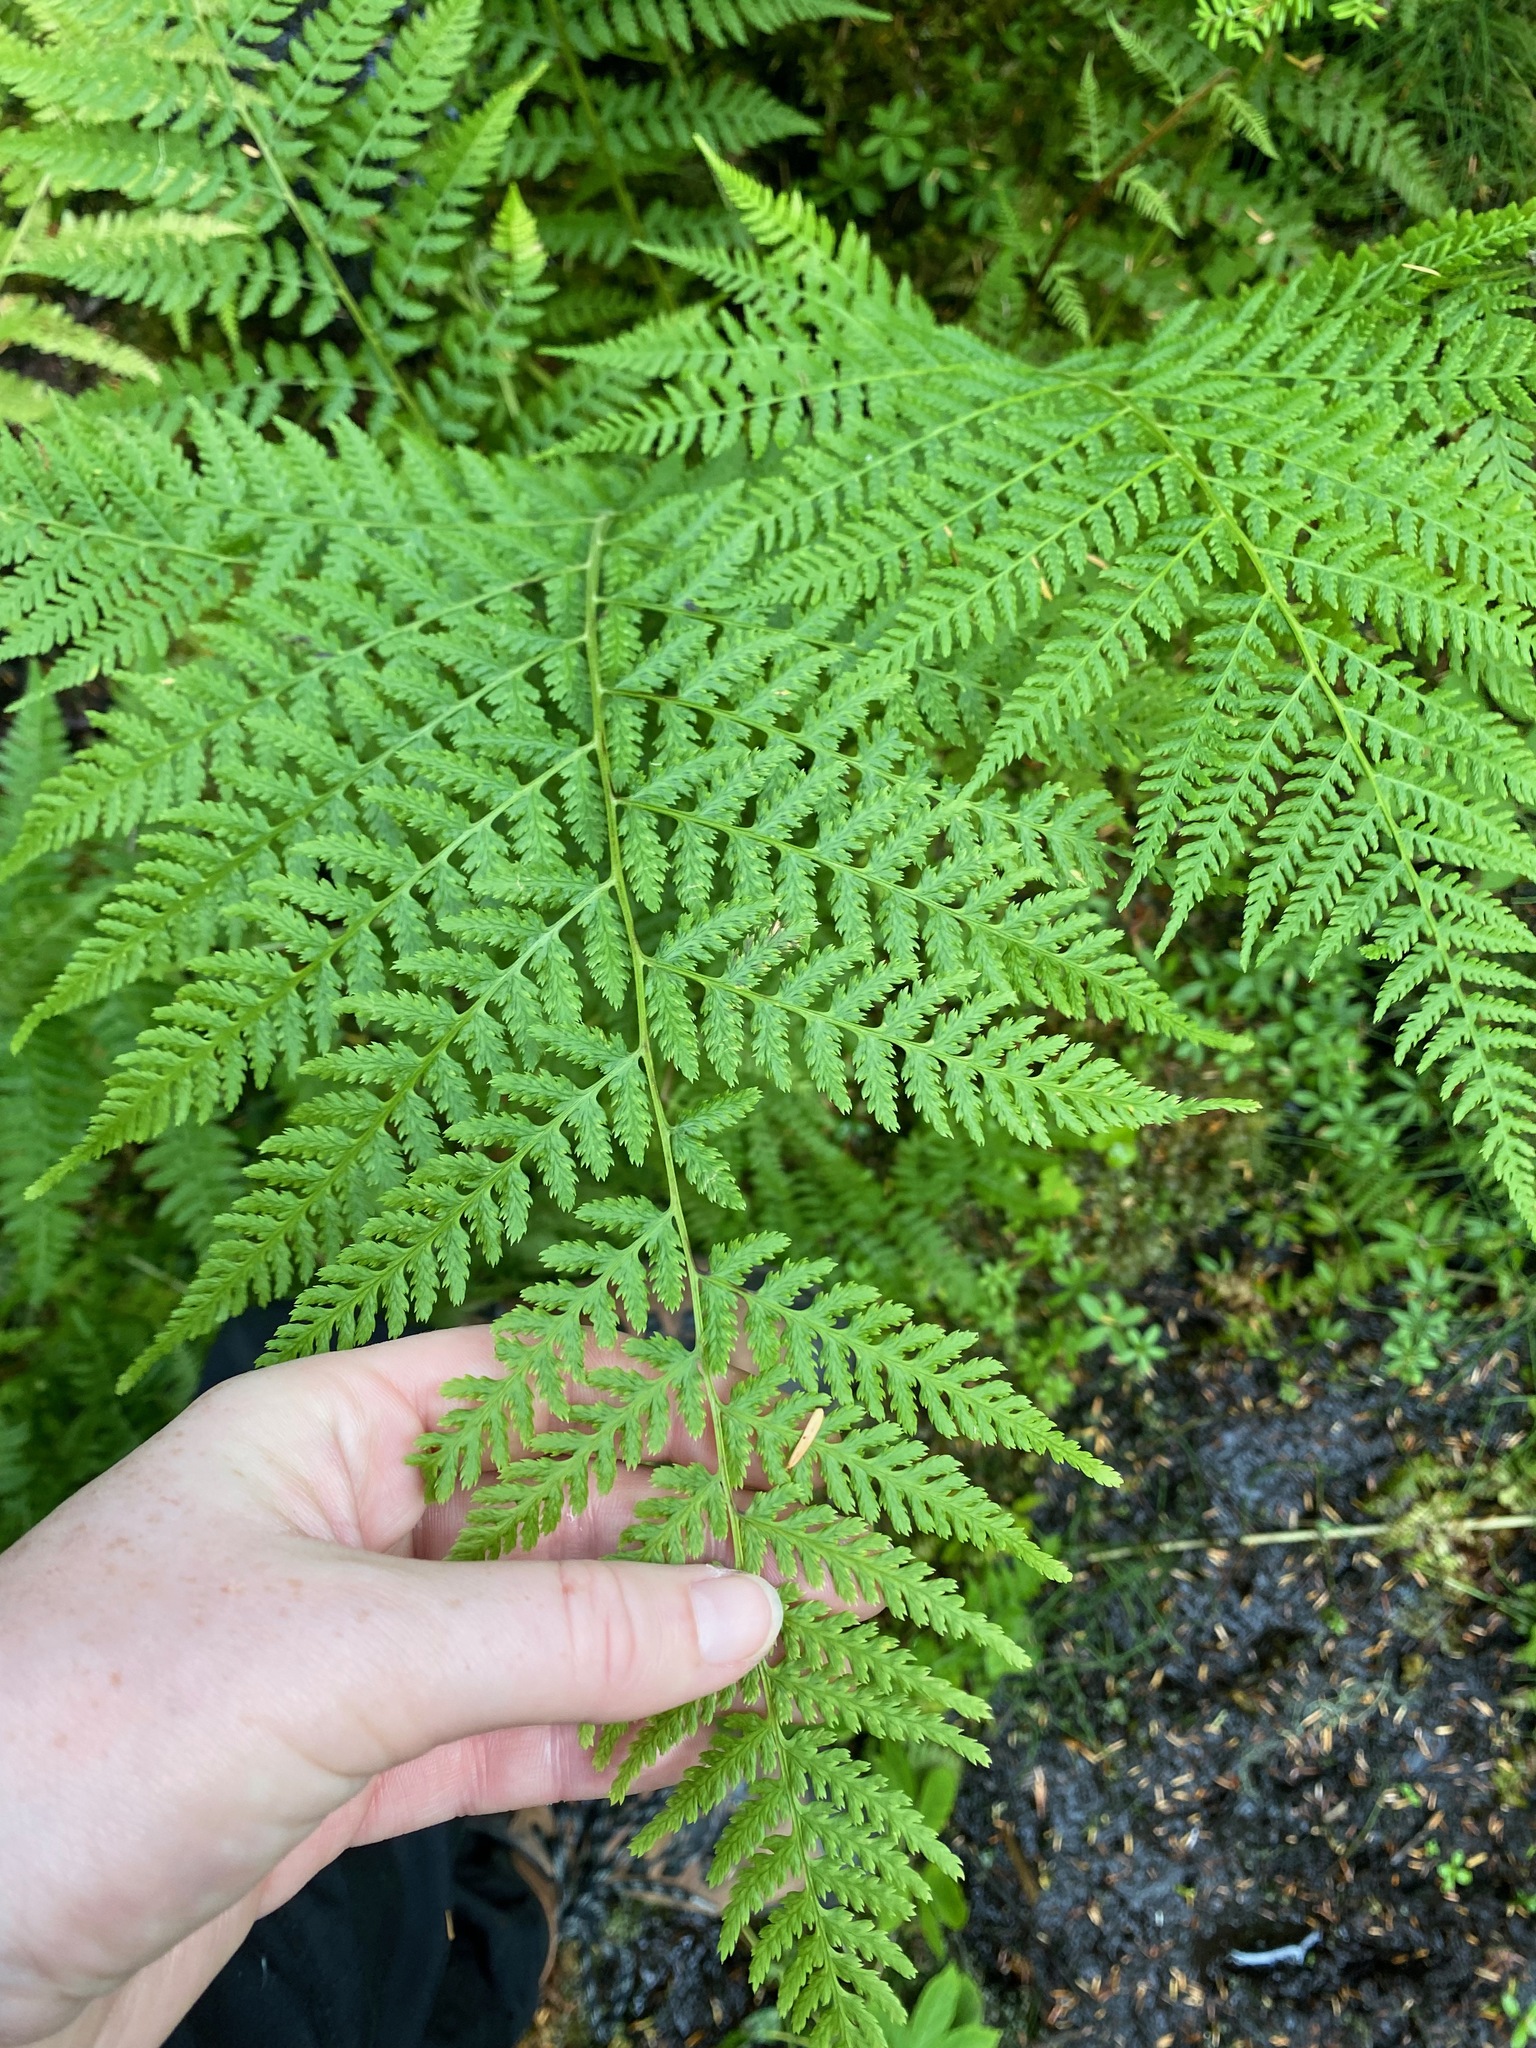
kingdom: Plantae
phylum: Tracheophyta
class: Polypodiopsida
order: Polypodiales
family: Athyriaceae
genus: Athyrium
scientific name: Athyrium filix-femina
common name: Lady fern
